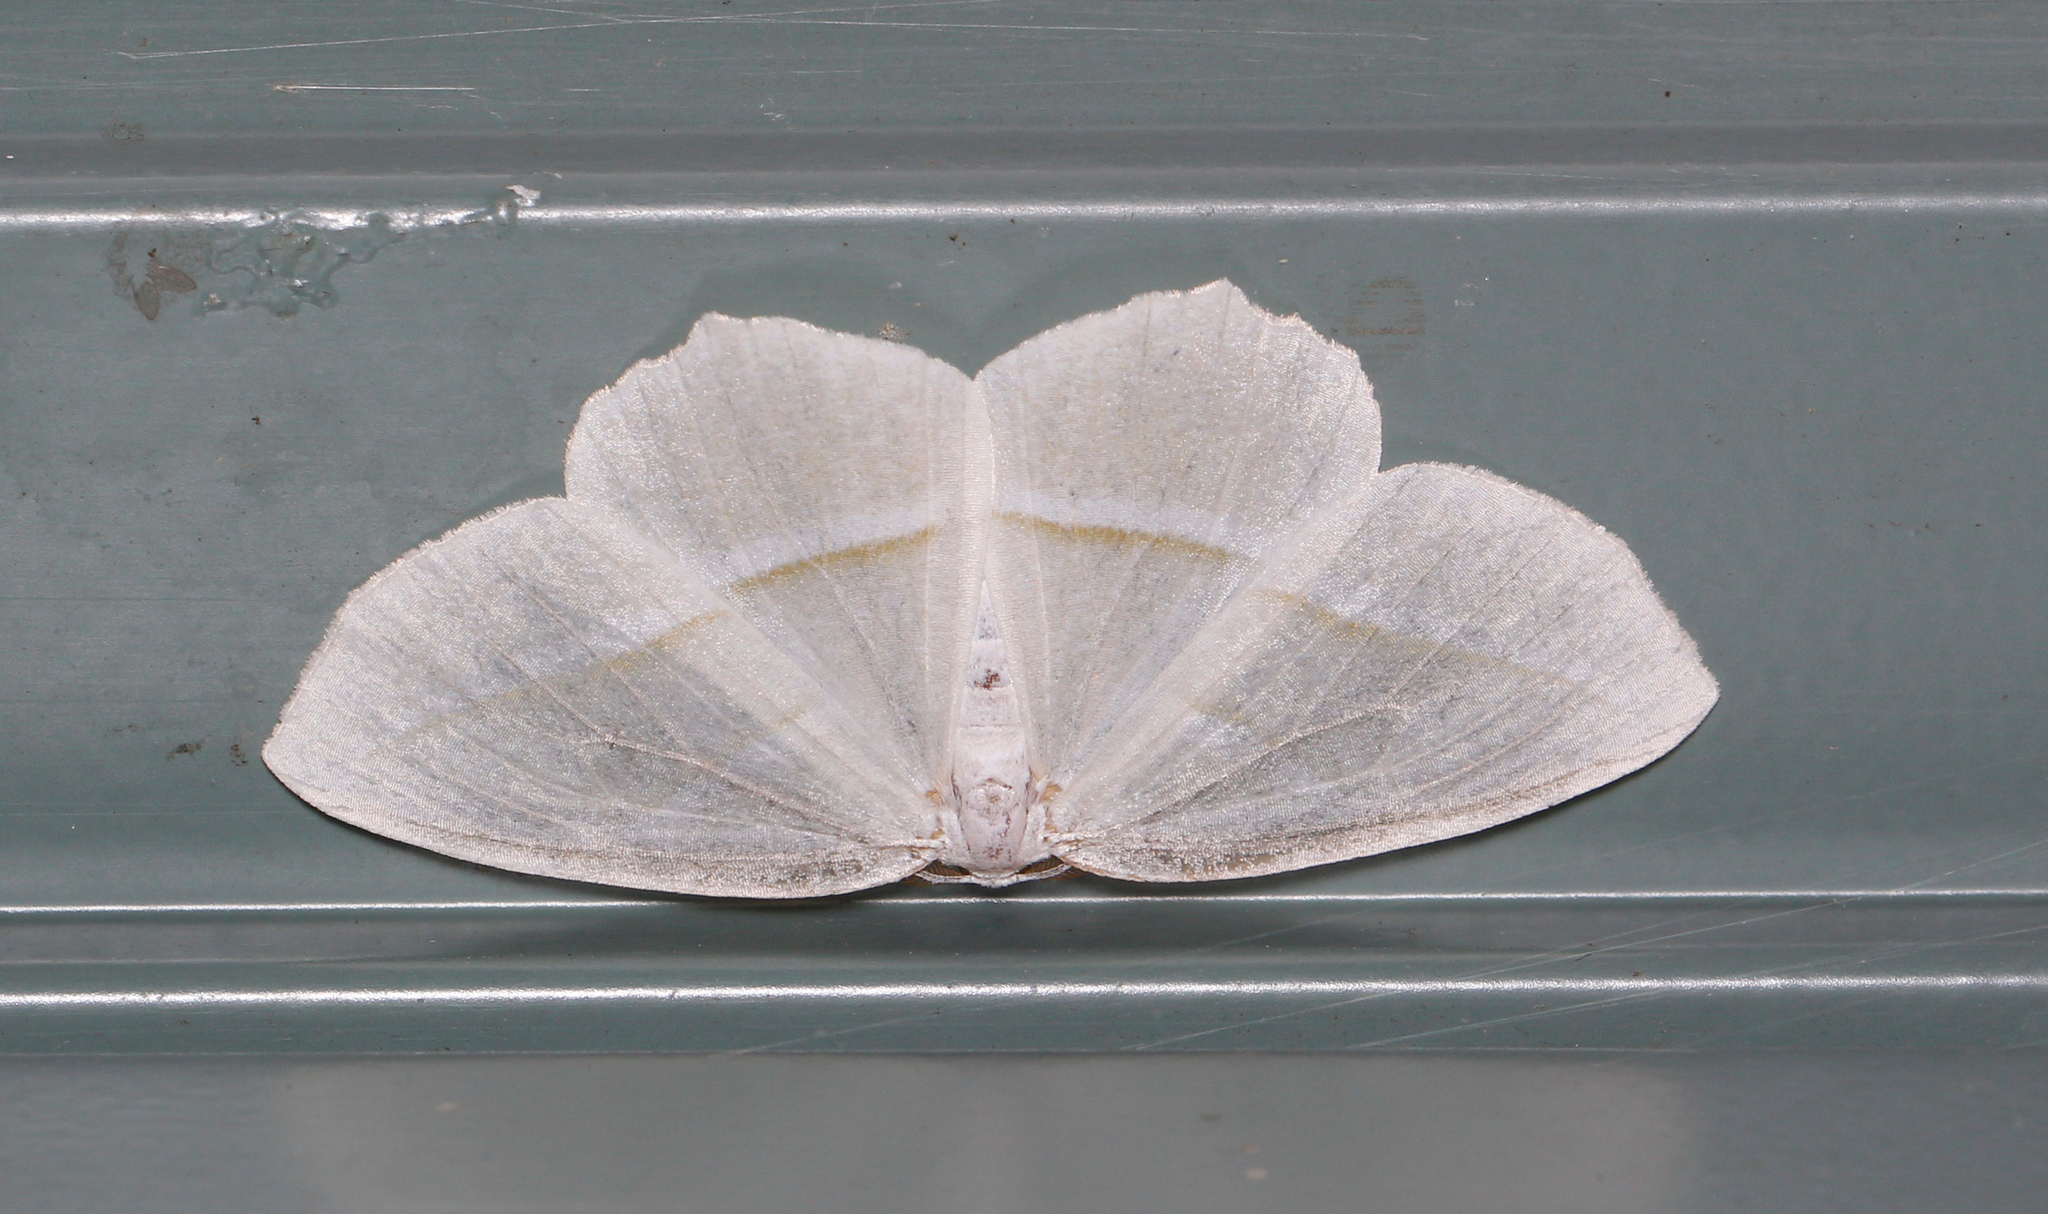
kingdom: Animalia
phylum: Arthropoda
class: Insecta
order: Lepidoptera
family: Geometridae
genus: Campaea
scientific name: Campaea perlata
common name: Fringed looper
